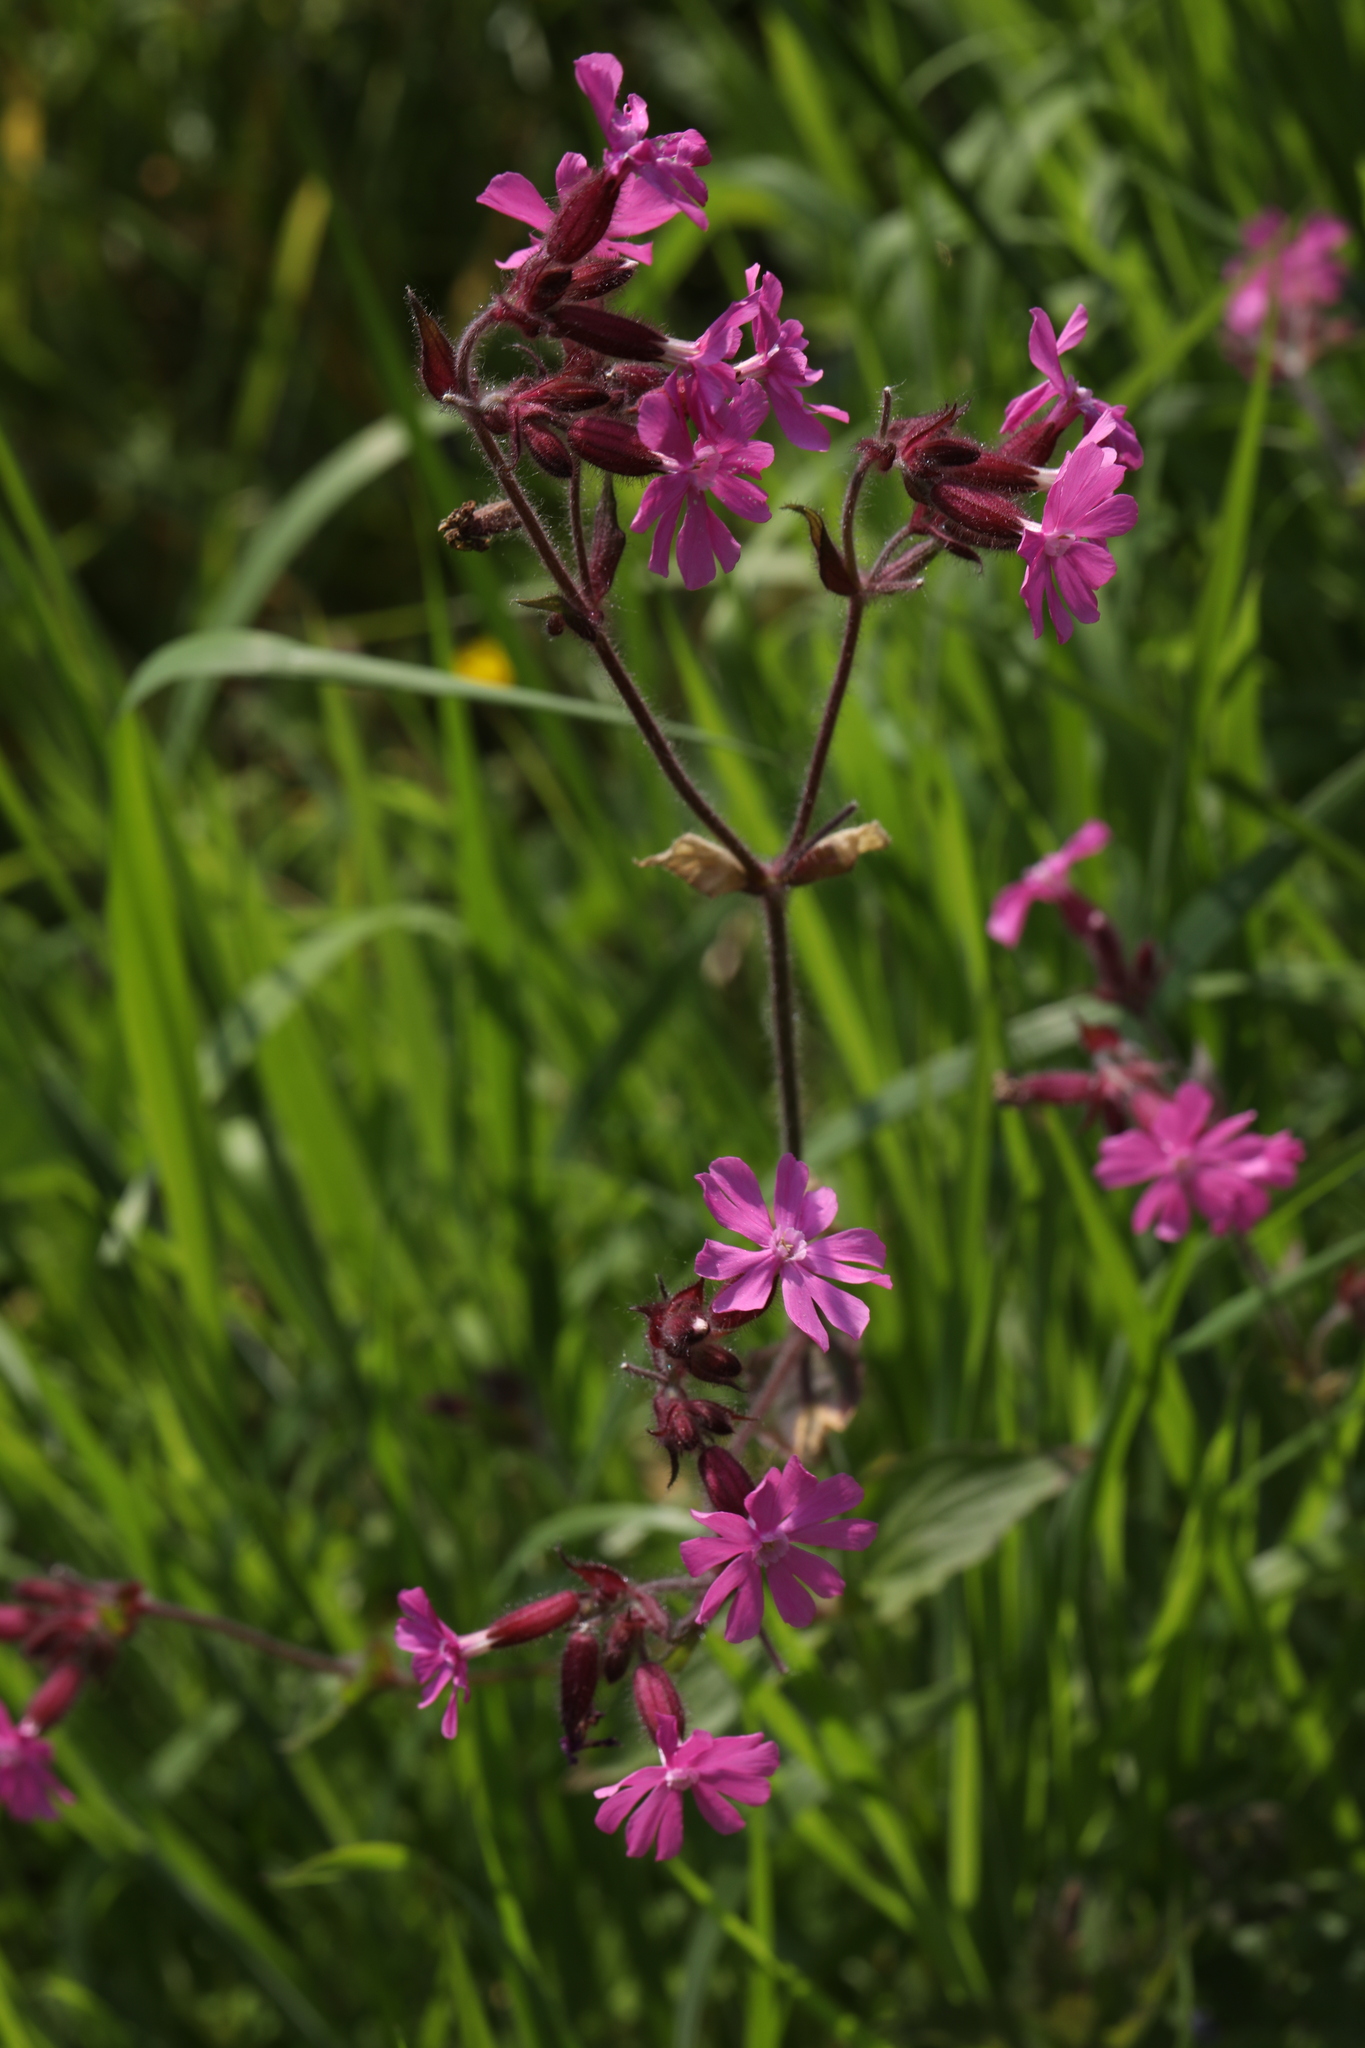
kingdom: Plantae
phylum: Tracheophyta
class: Magnoliopsida
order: Caryophyllales
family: Caryophyllaceae
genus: Silene
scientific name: Silene dioica
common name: Red campion
